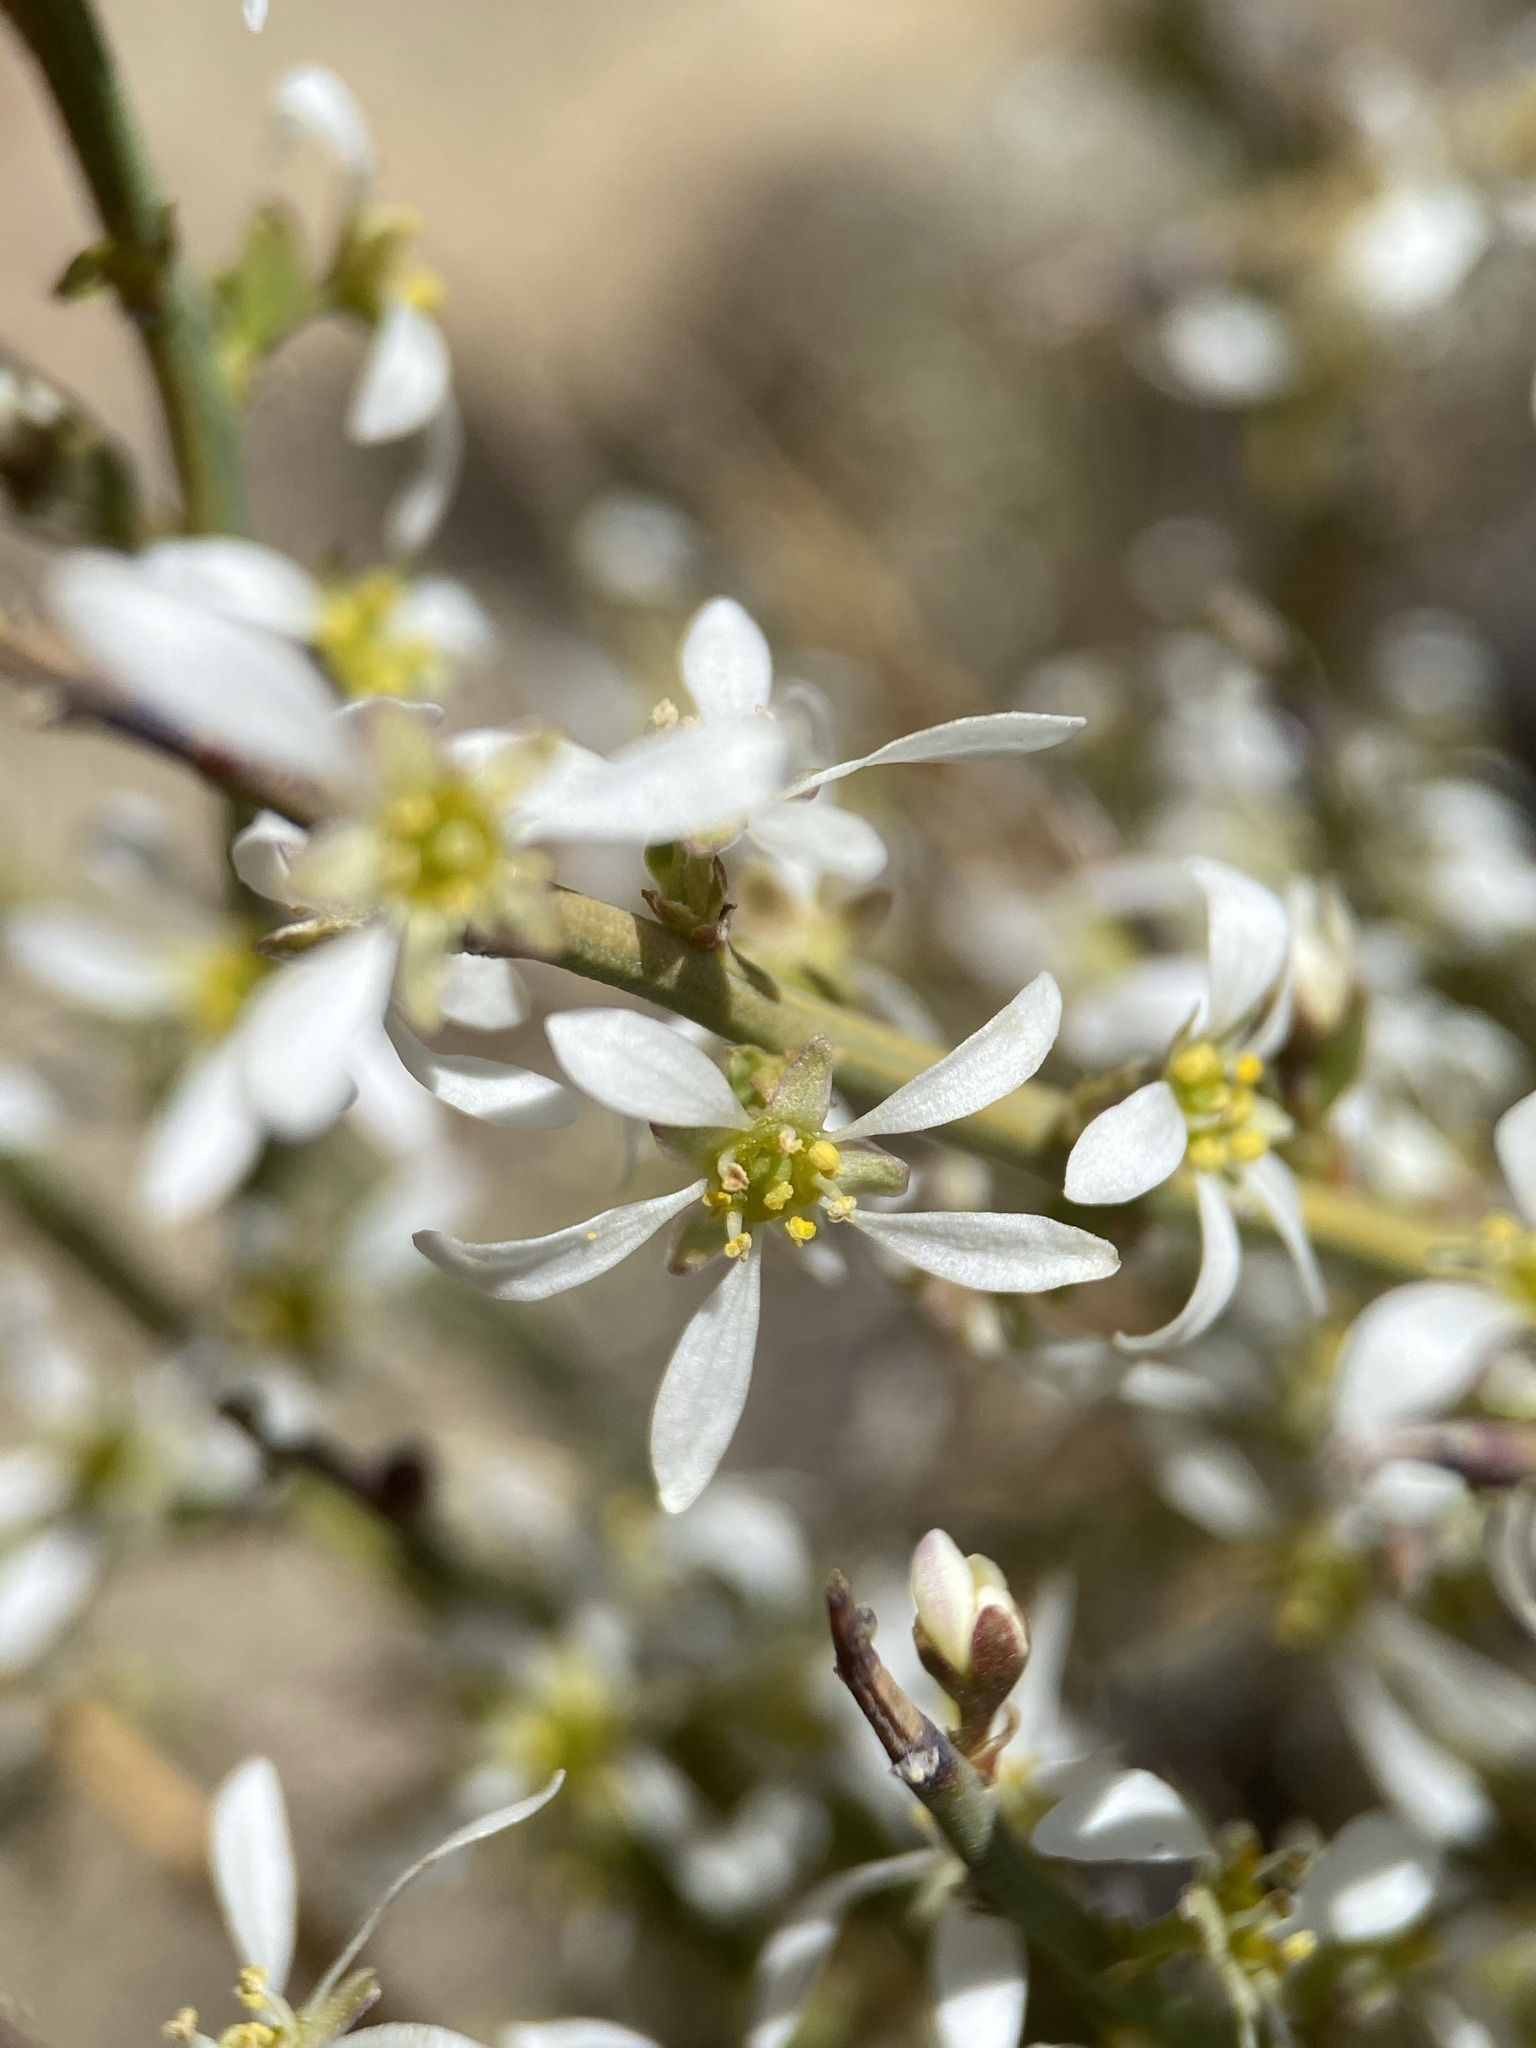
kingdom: Plantae
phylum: Tracheophyta
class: Magnoliopsida
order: Crossosomatales
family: Crossosomataceae
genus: Glossopetalon
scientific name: Glossopetalon spinescens
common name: Spring greasebush
